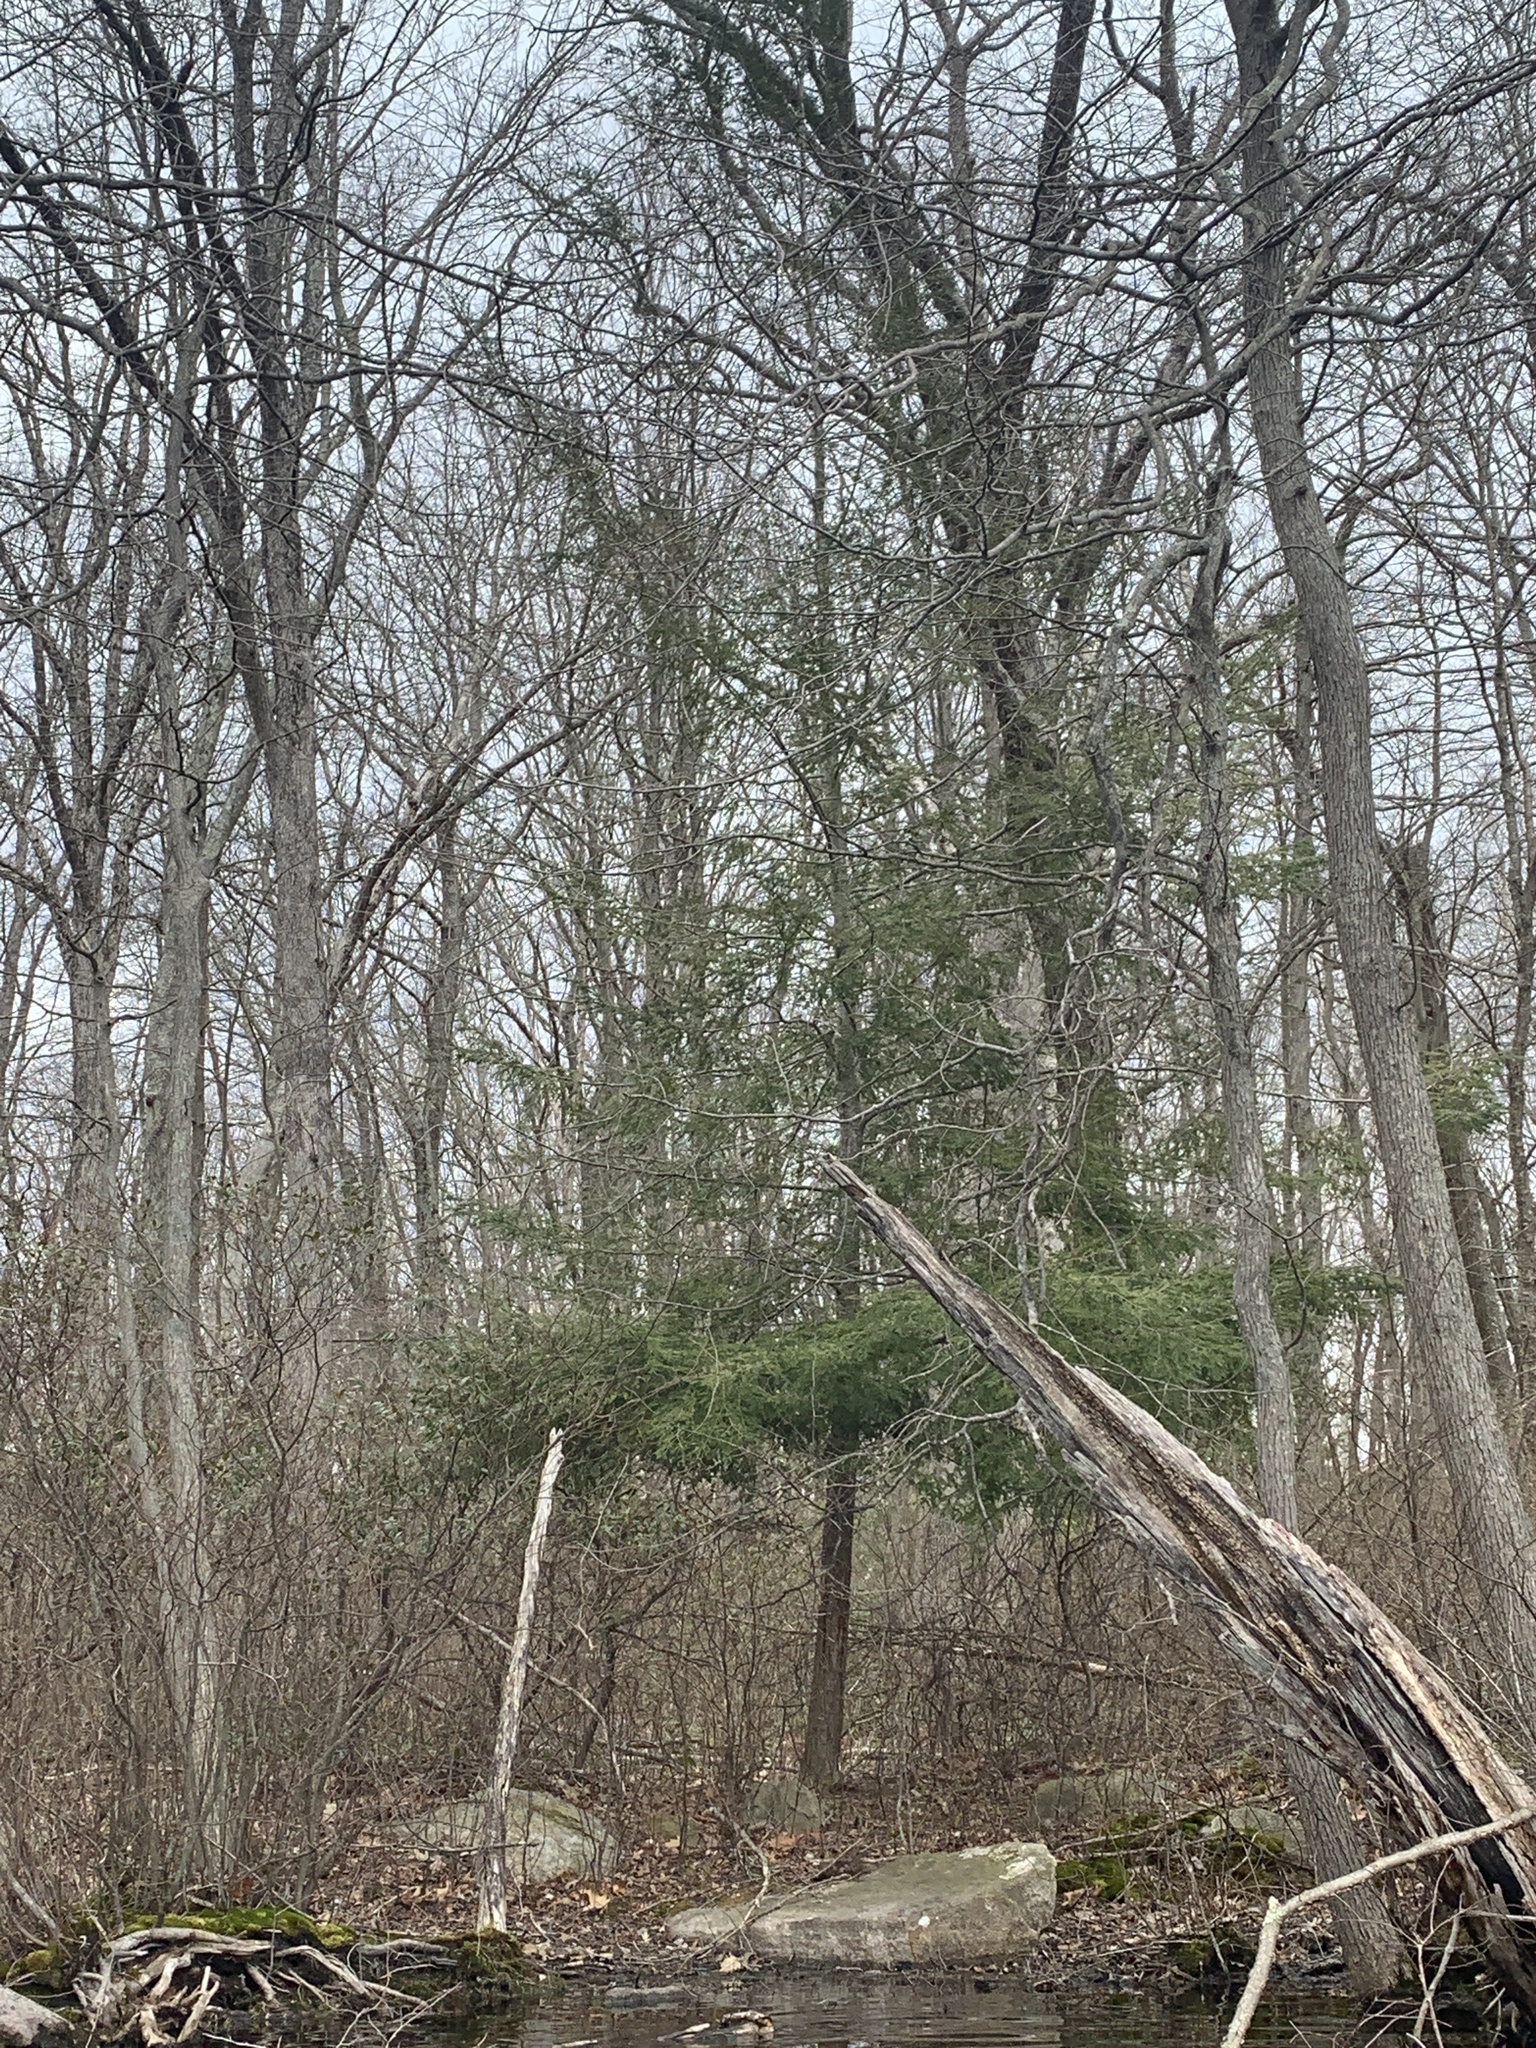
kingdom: Plantae
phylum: Tracheophyta
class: Pinopsida
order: Pinales
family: Pinaceae
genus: Tsuga
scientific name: Tsuga canadensis
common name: Eastern hemlock
